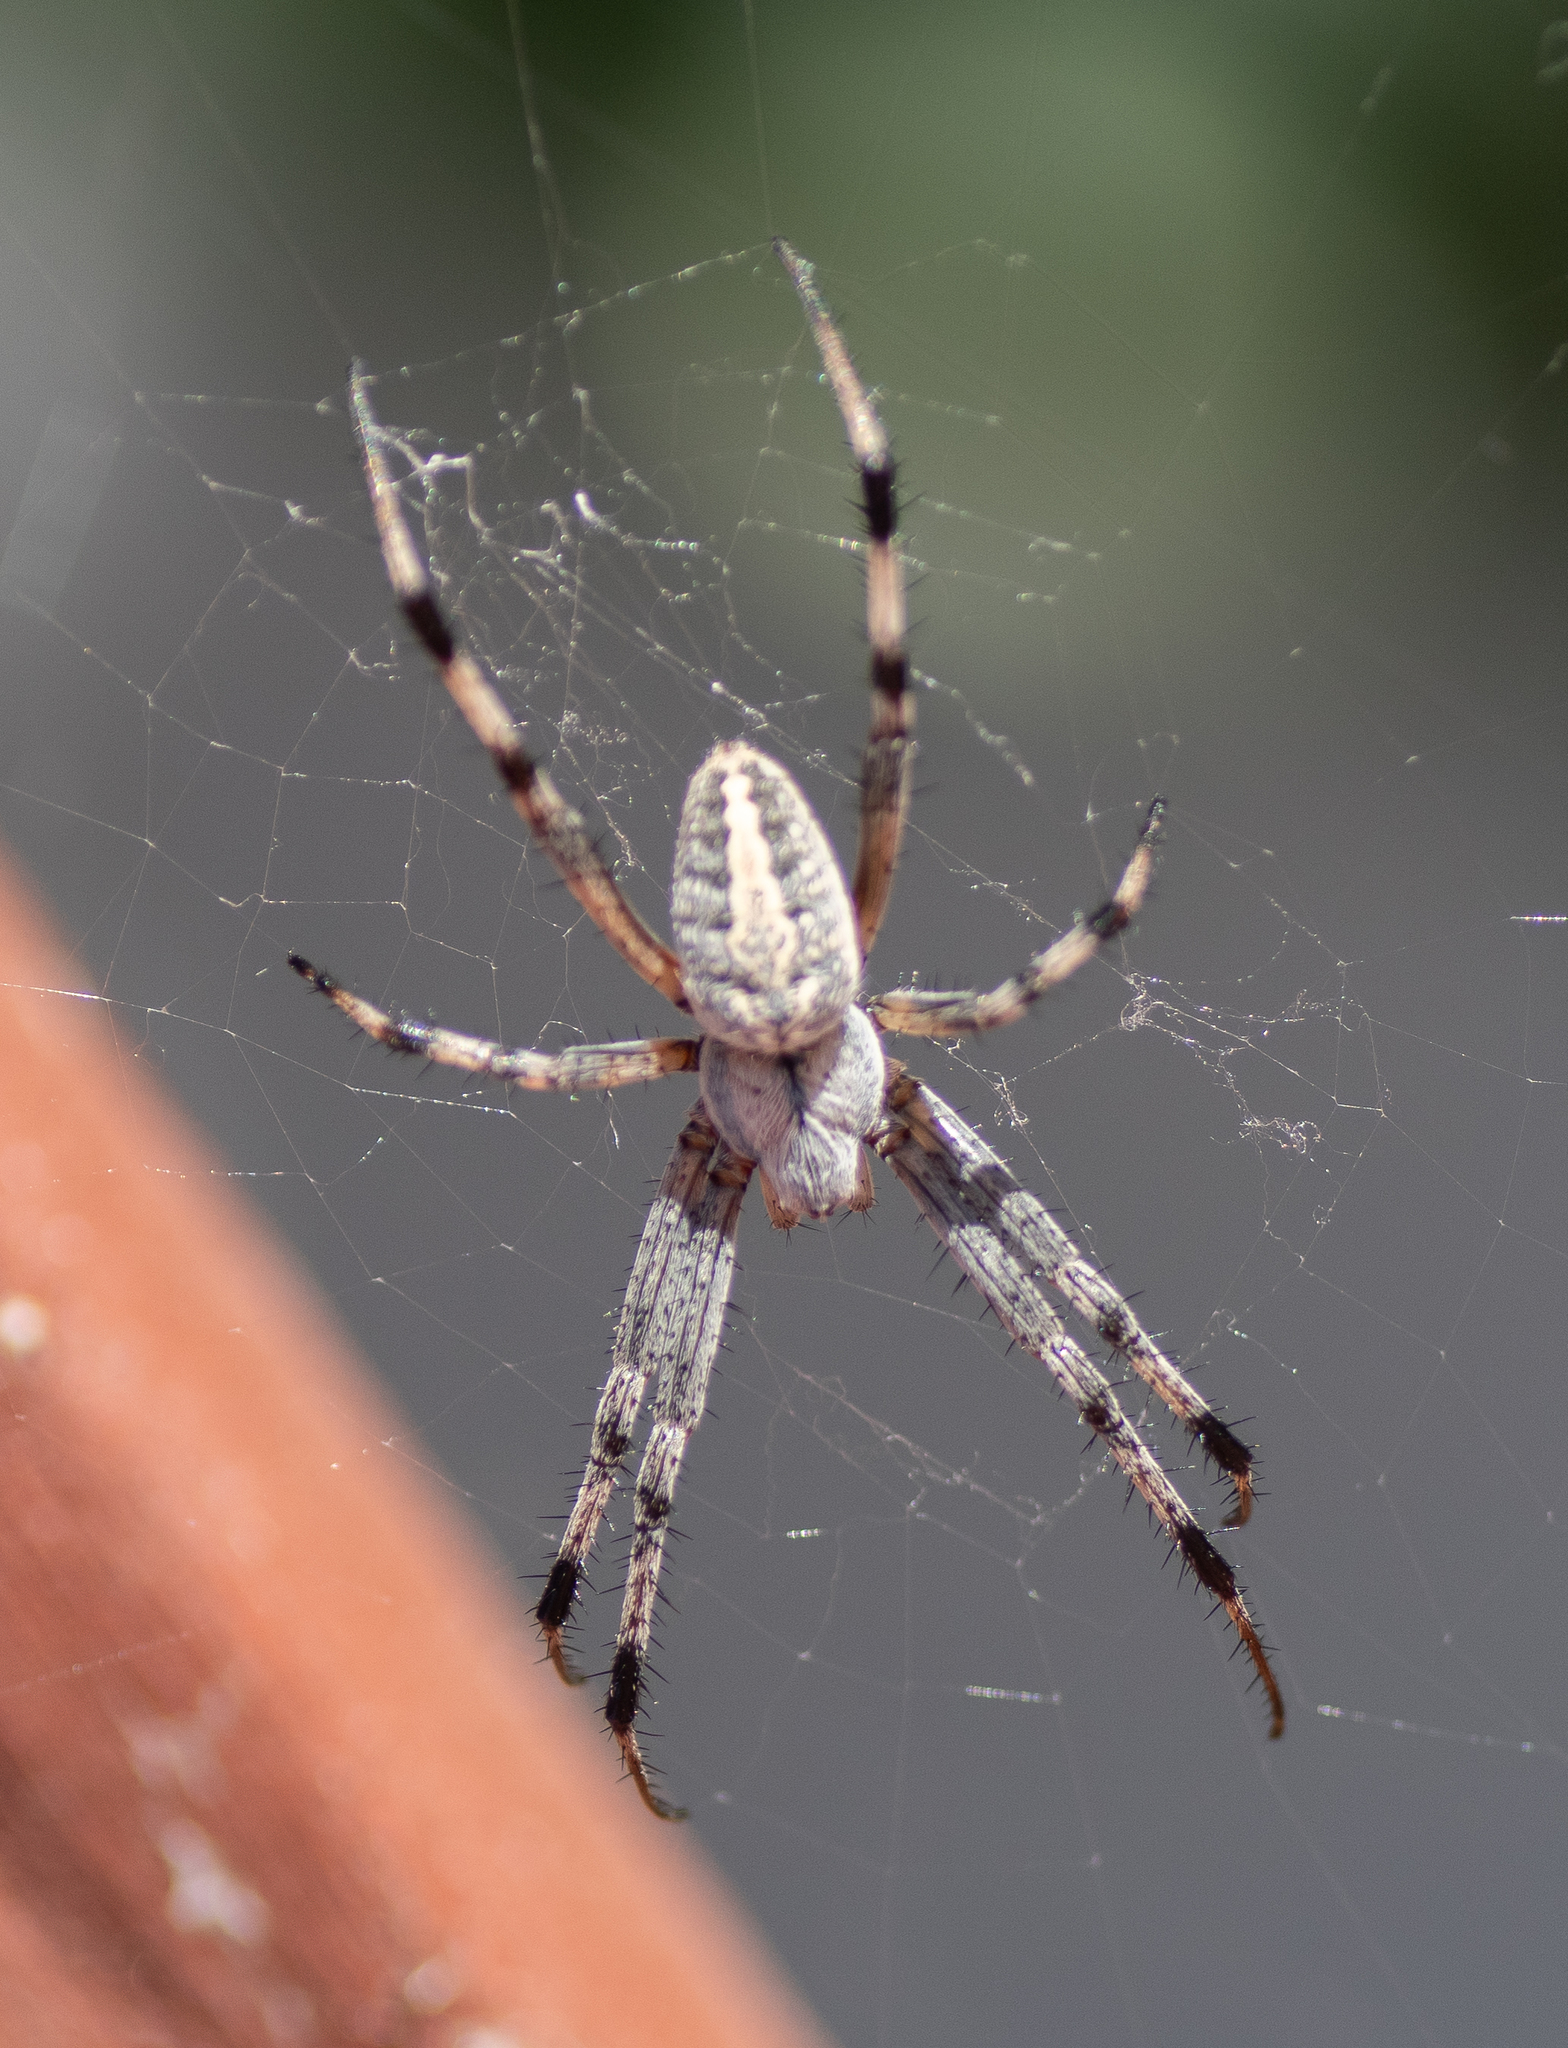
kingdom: Animalia
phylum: Arthropoda
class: Arachnida
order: Araneae
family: Araneidae
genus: Neoscona
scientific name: Neoscona oaxacensis
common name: Orb weavers
